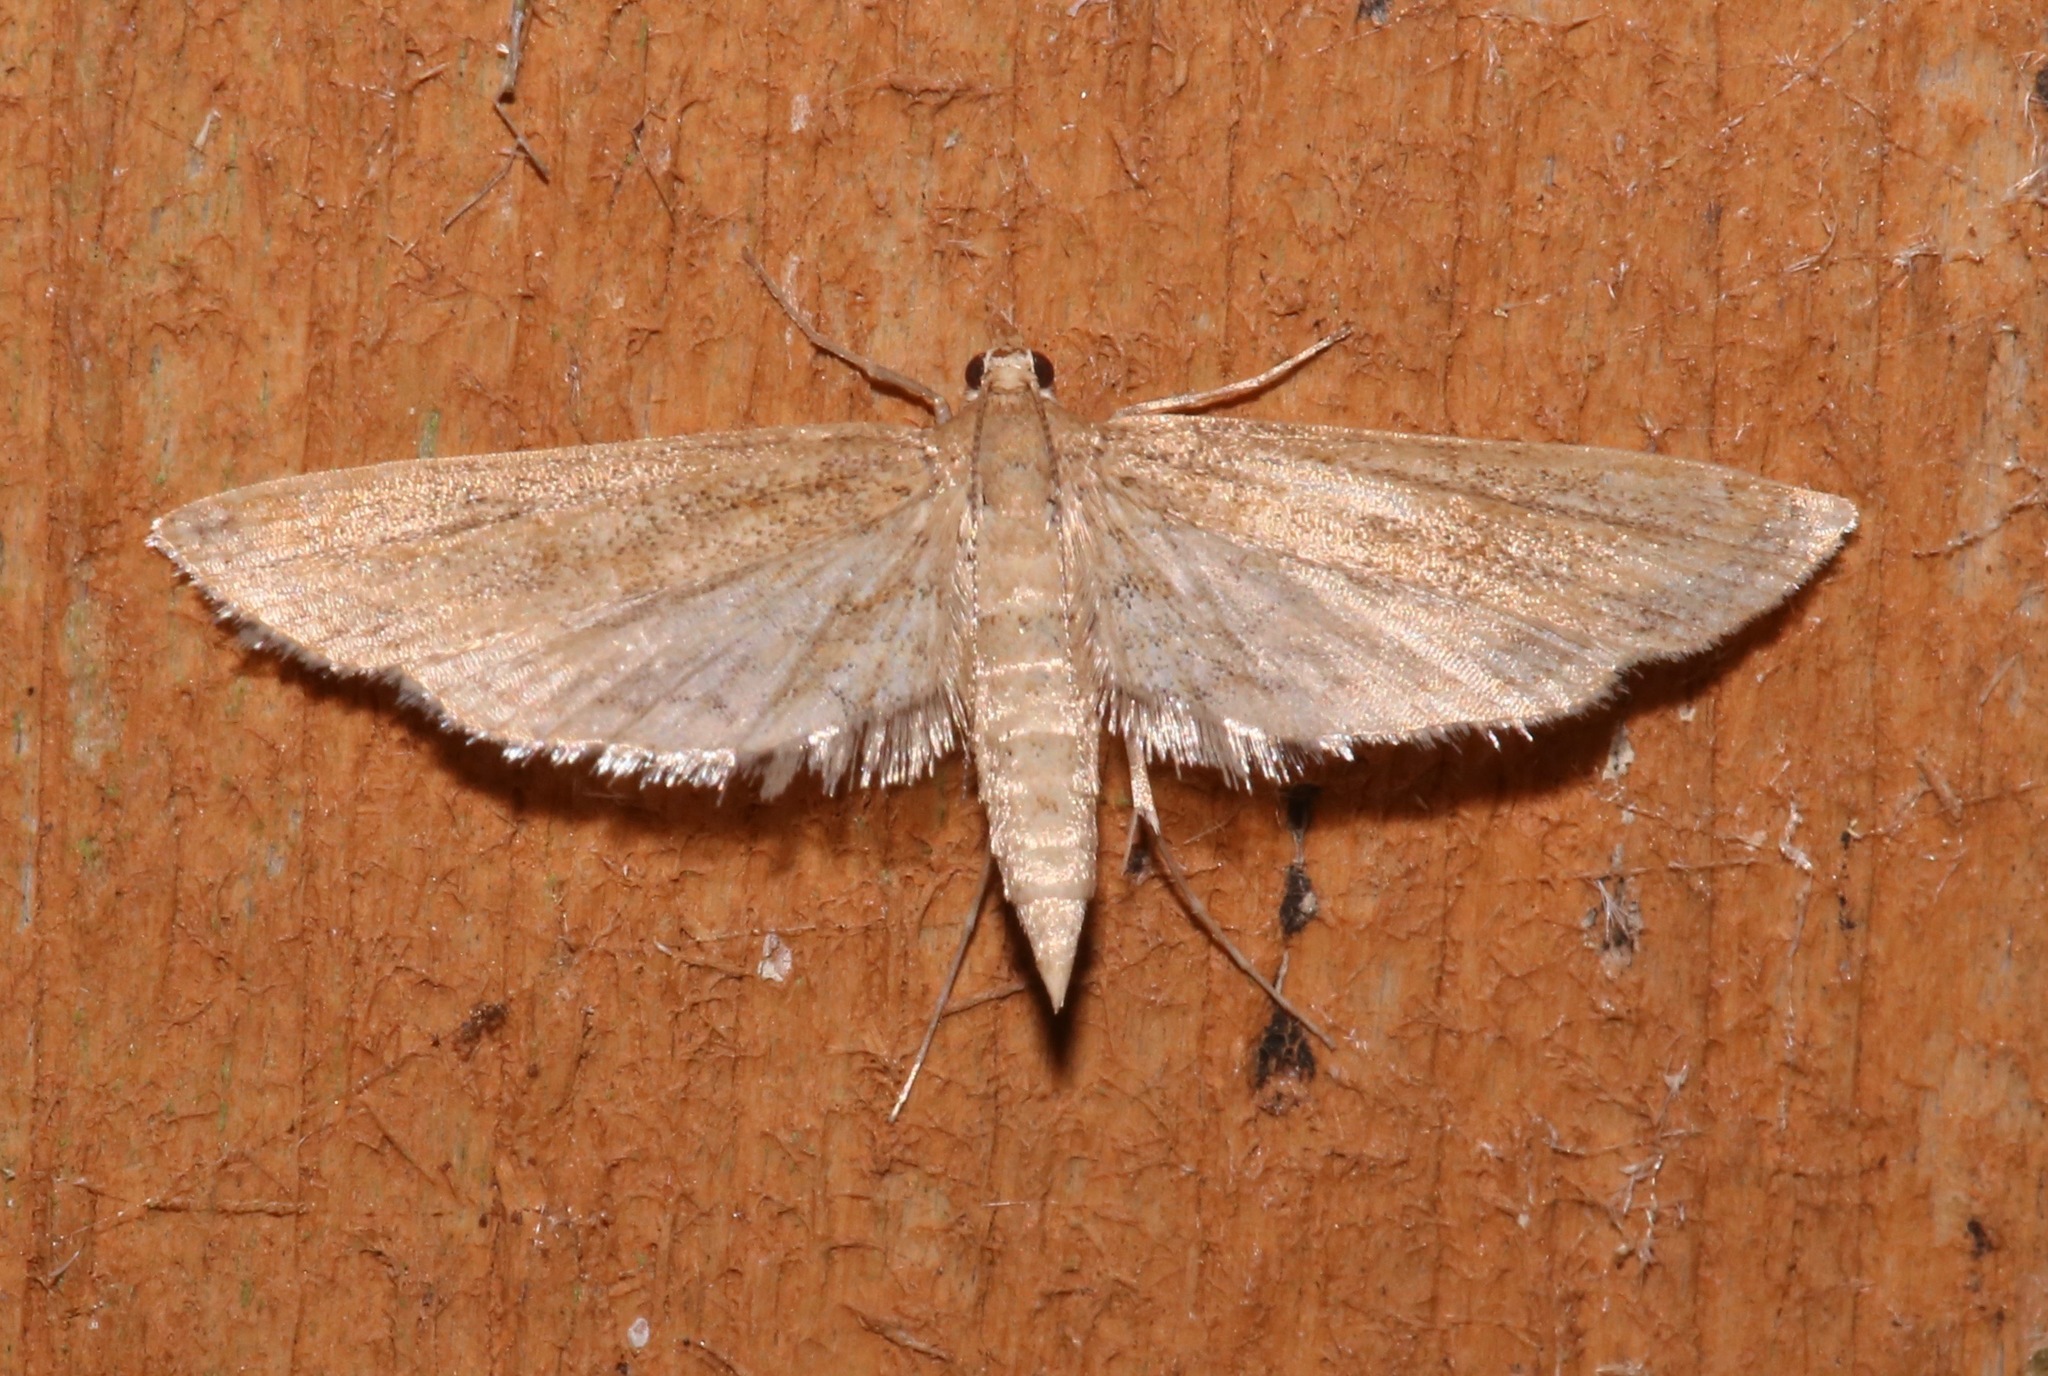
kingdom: Animalia
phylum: Arthropoda
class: Insecta
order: Lepidoptera
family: Crambidae
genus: Parapoynx
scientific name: Parapoynx allionealis
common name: Bladderwort casemaker
